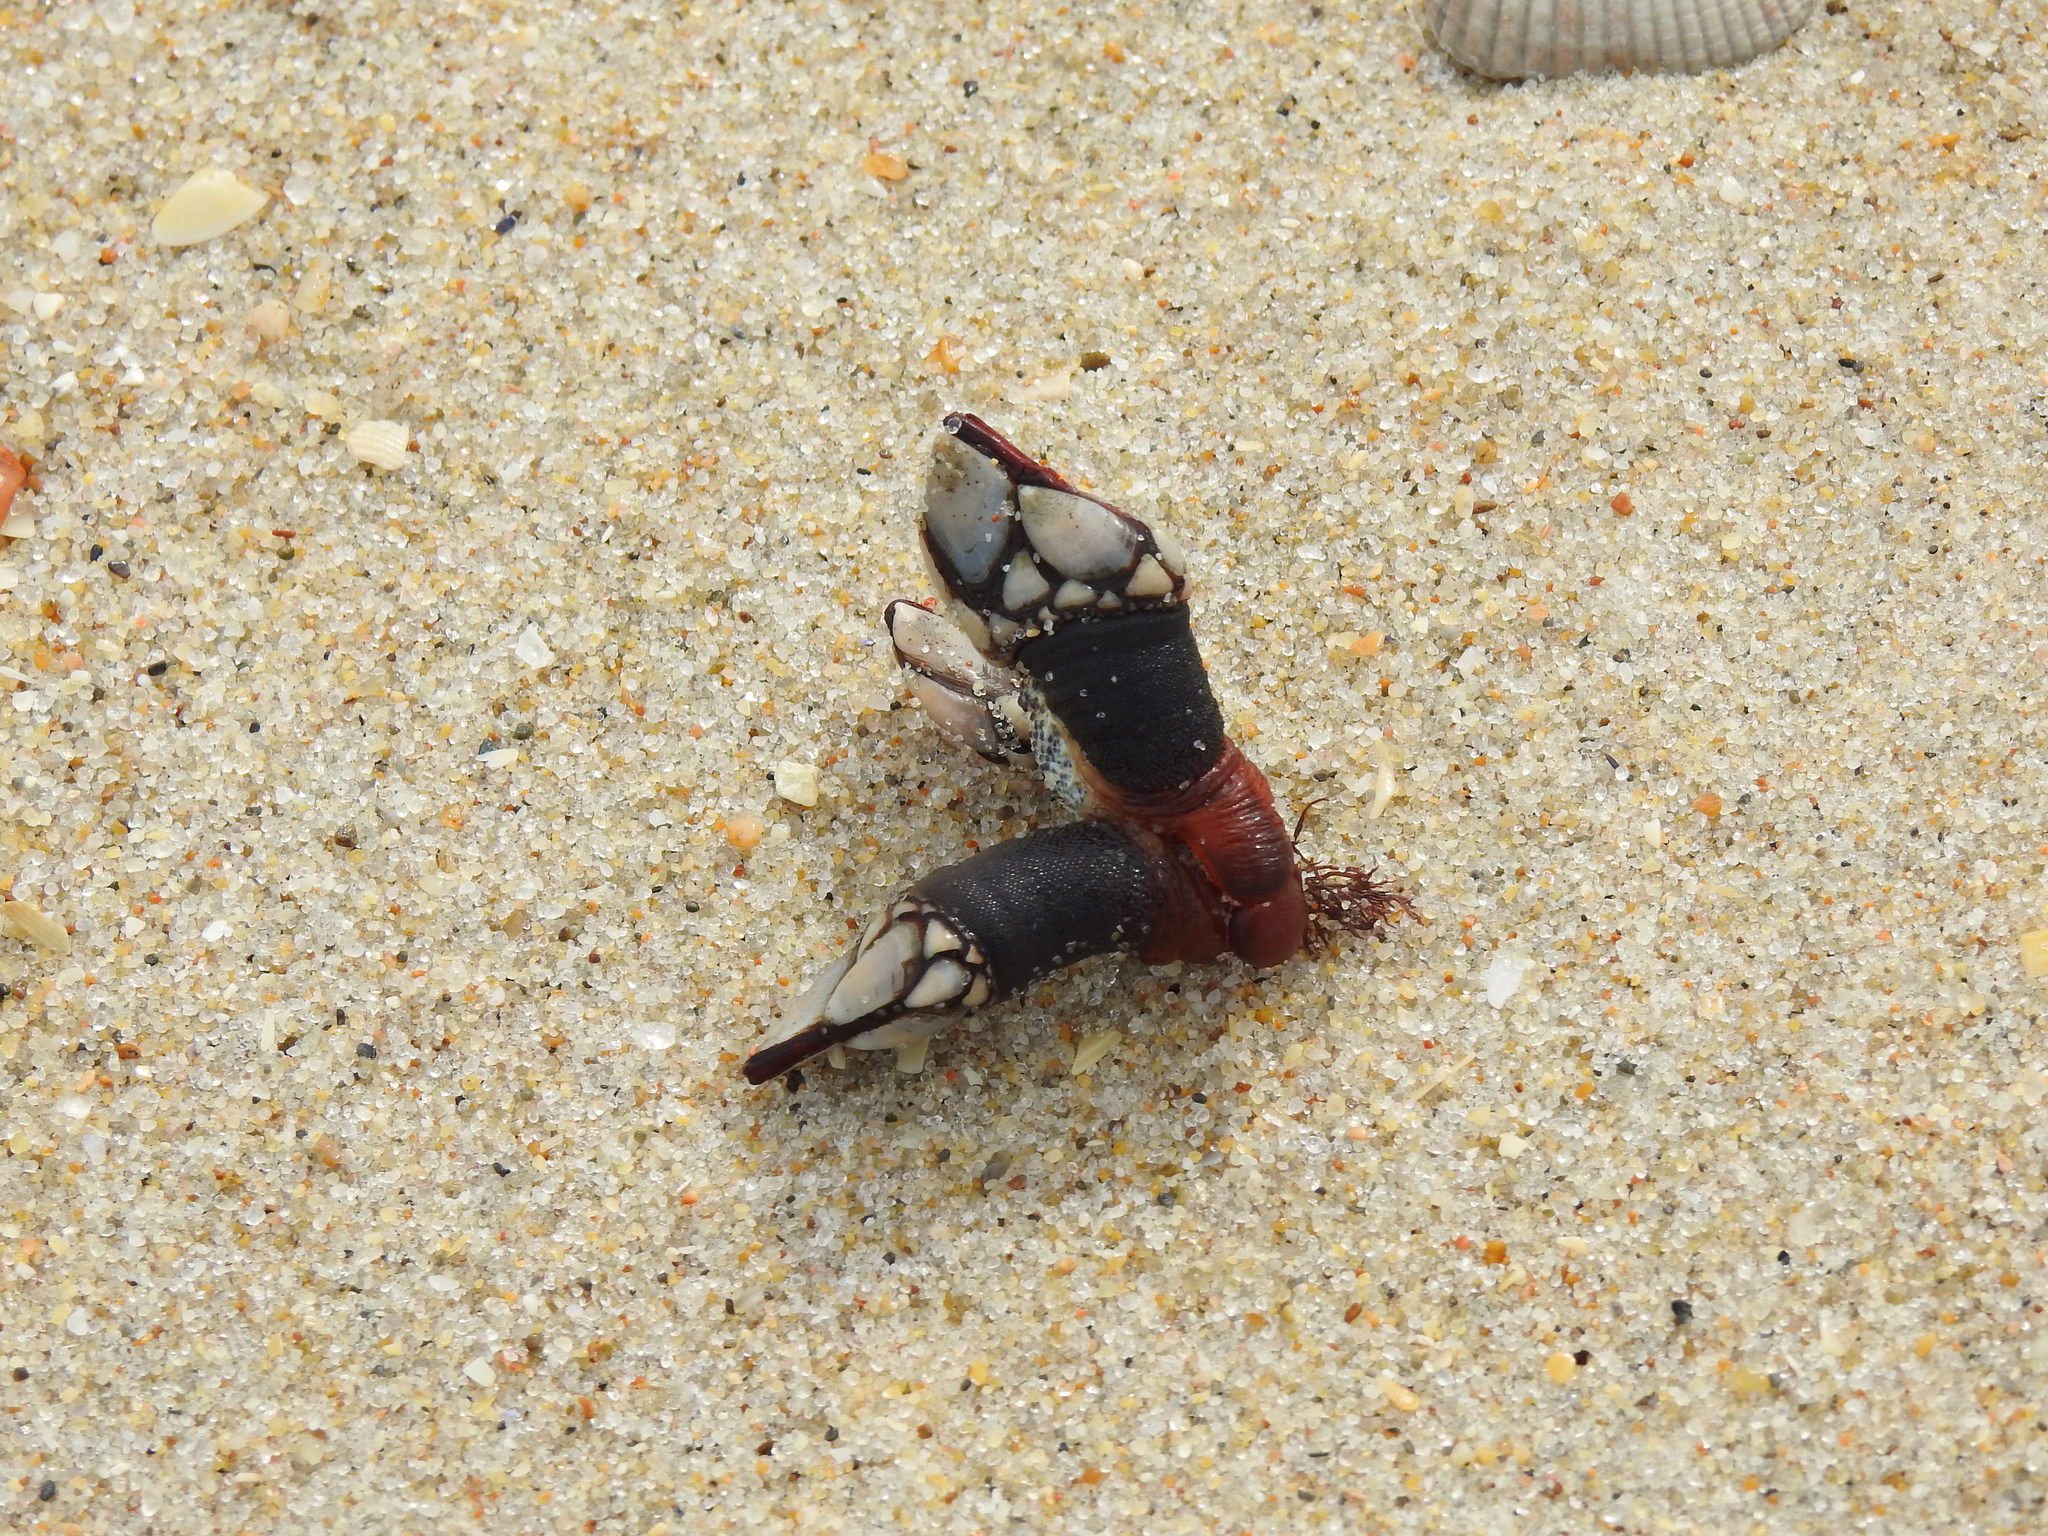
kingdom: Animalia
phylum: Arthropoda
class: Maxillopoda
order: Pedunculata
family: Pollicipedidae
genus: Pollicipes
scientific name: Pollicipes pollicipes
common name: Gooseneck barnacle
